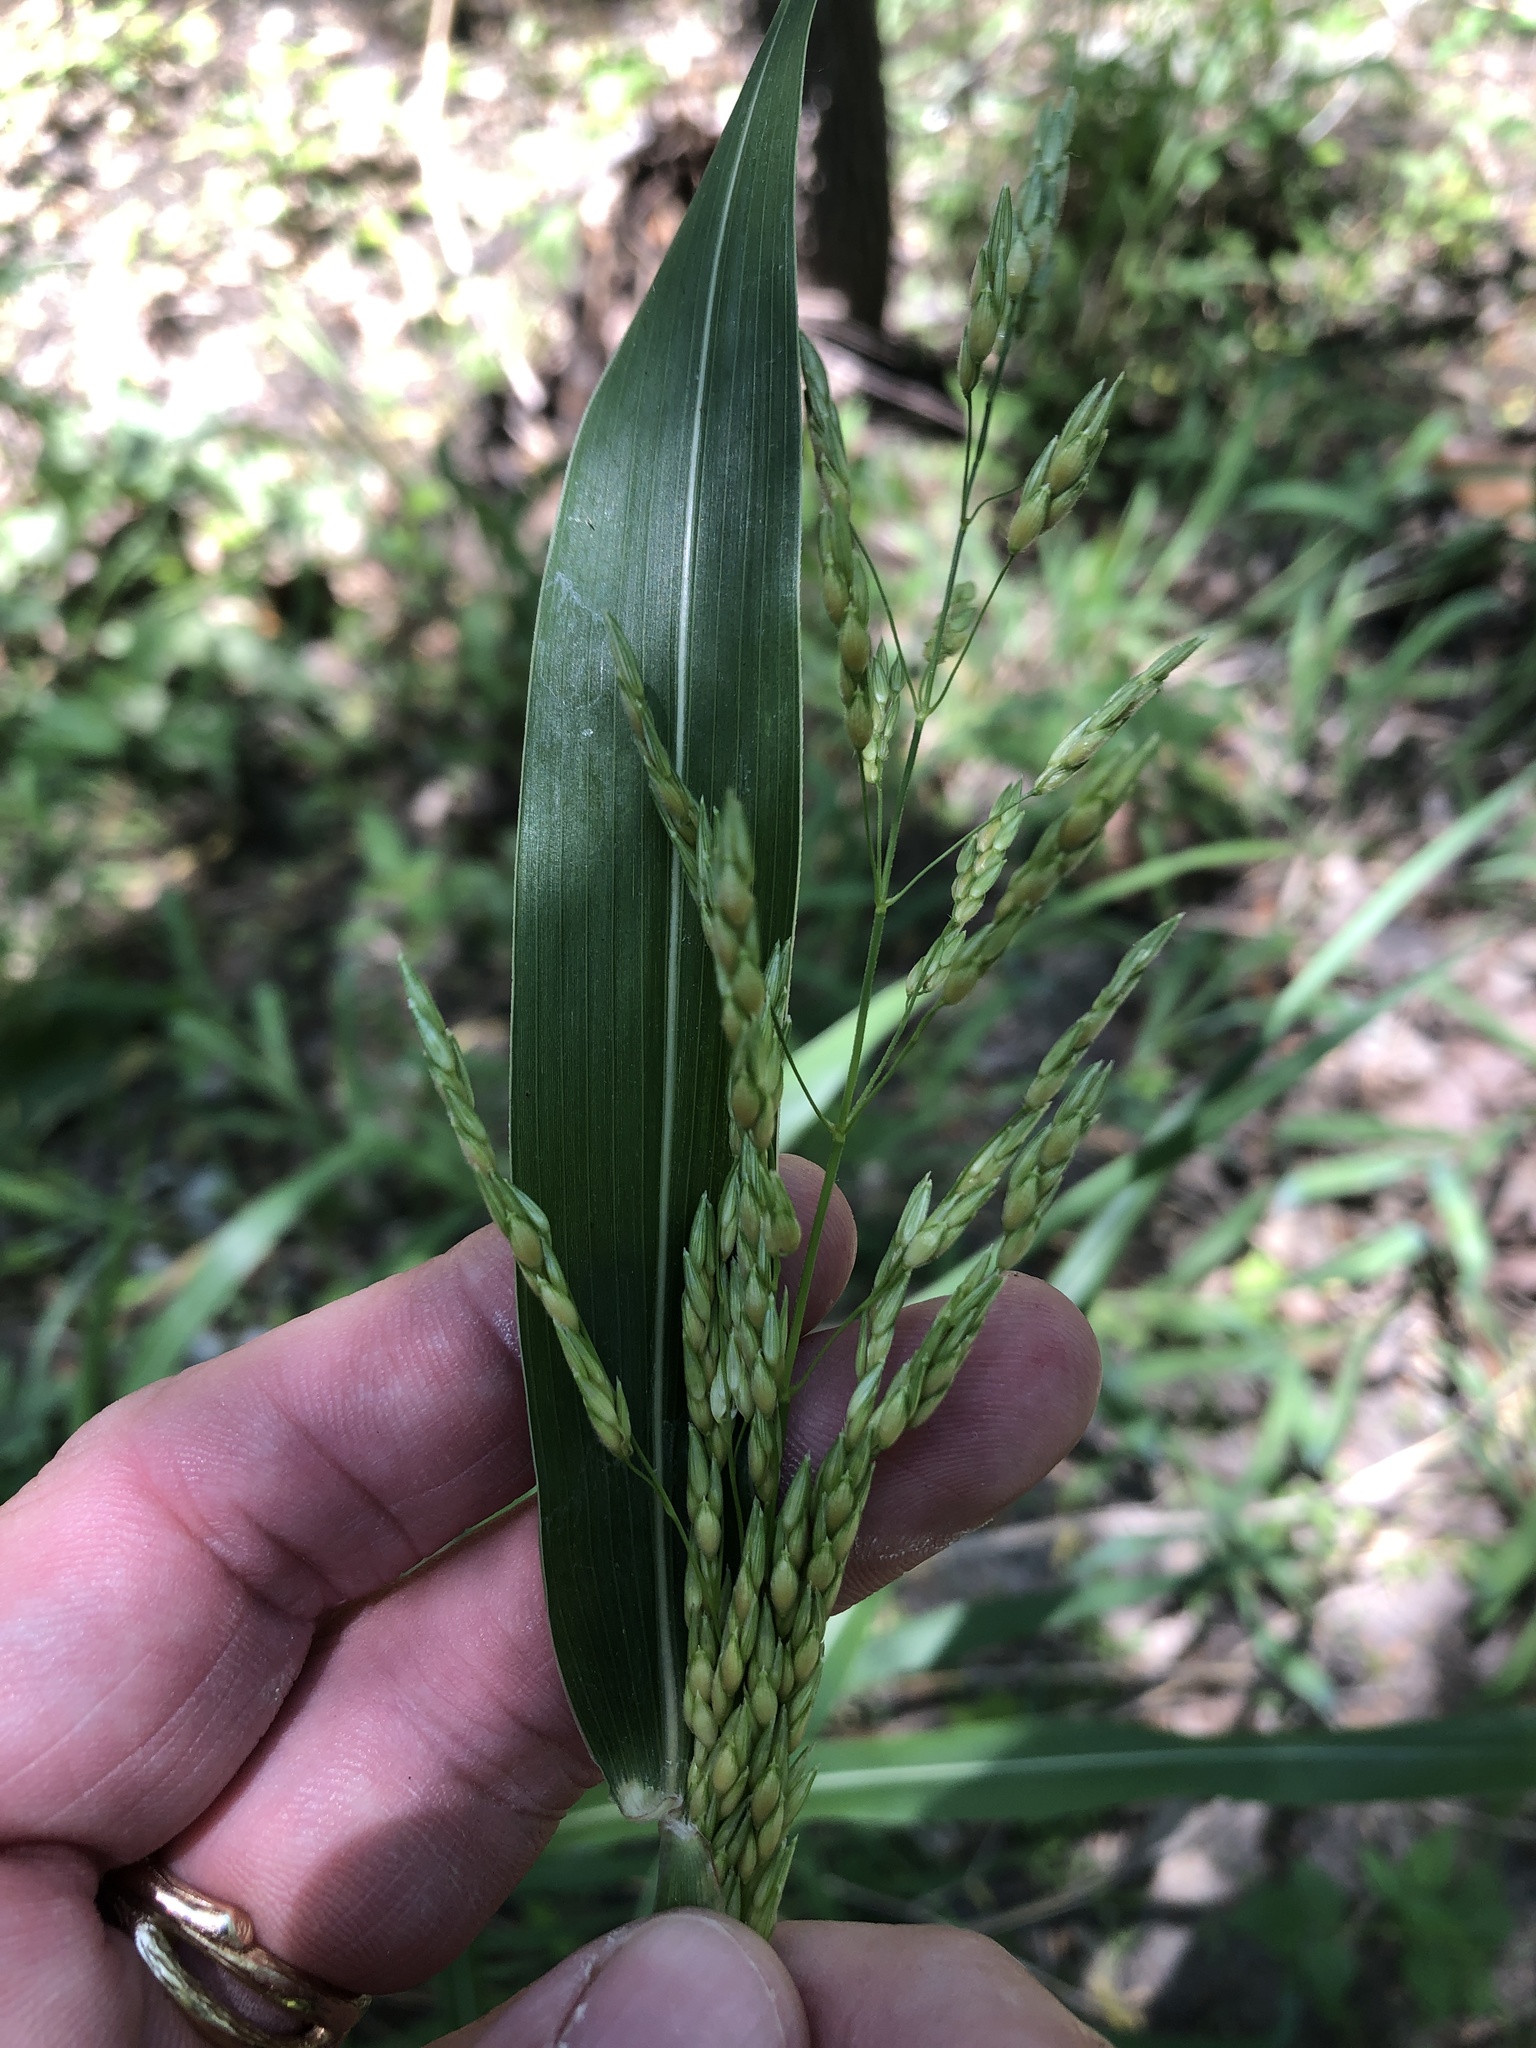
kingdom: Plantae
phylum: Tracheophyta
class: Liliopsida
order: Poales
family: Poaceae
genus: Sorghum
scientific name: Sorghum halepense
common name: Johnson-grass
